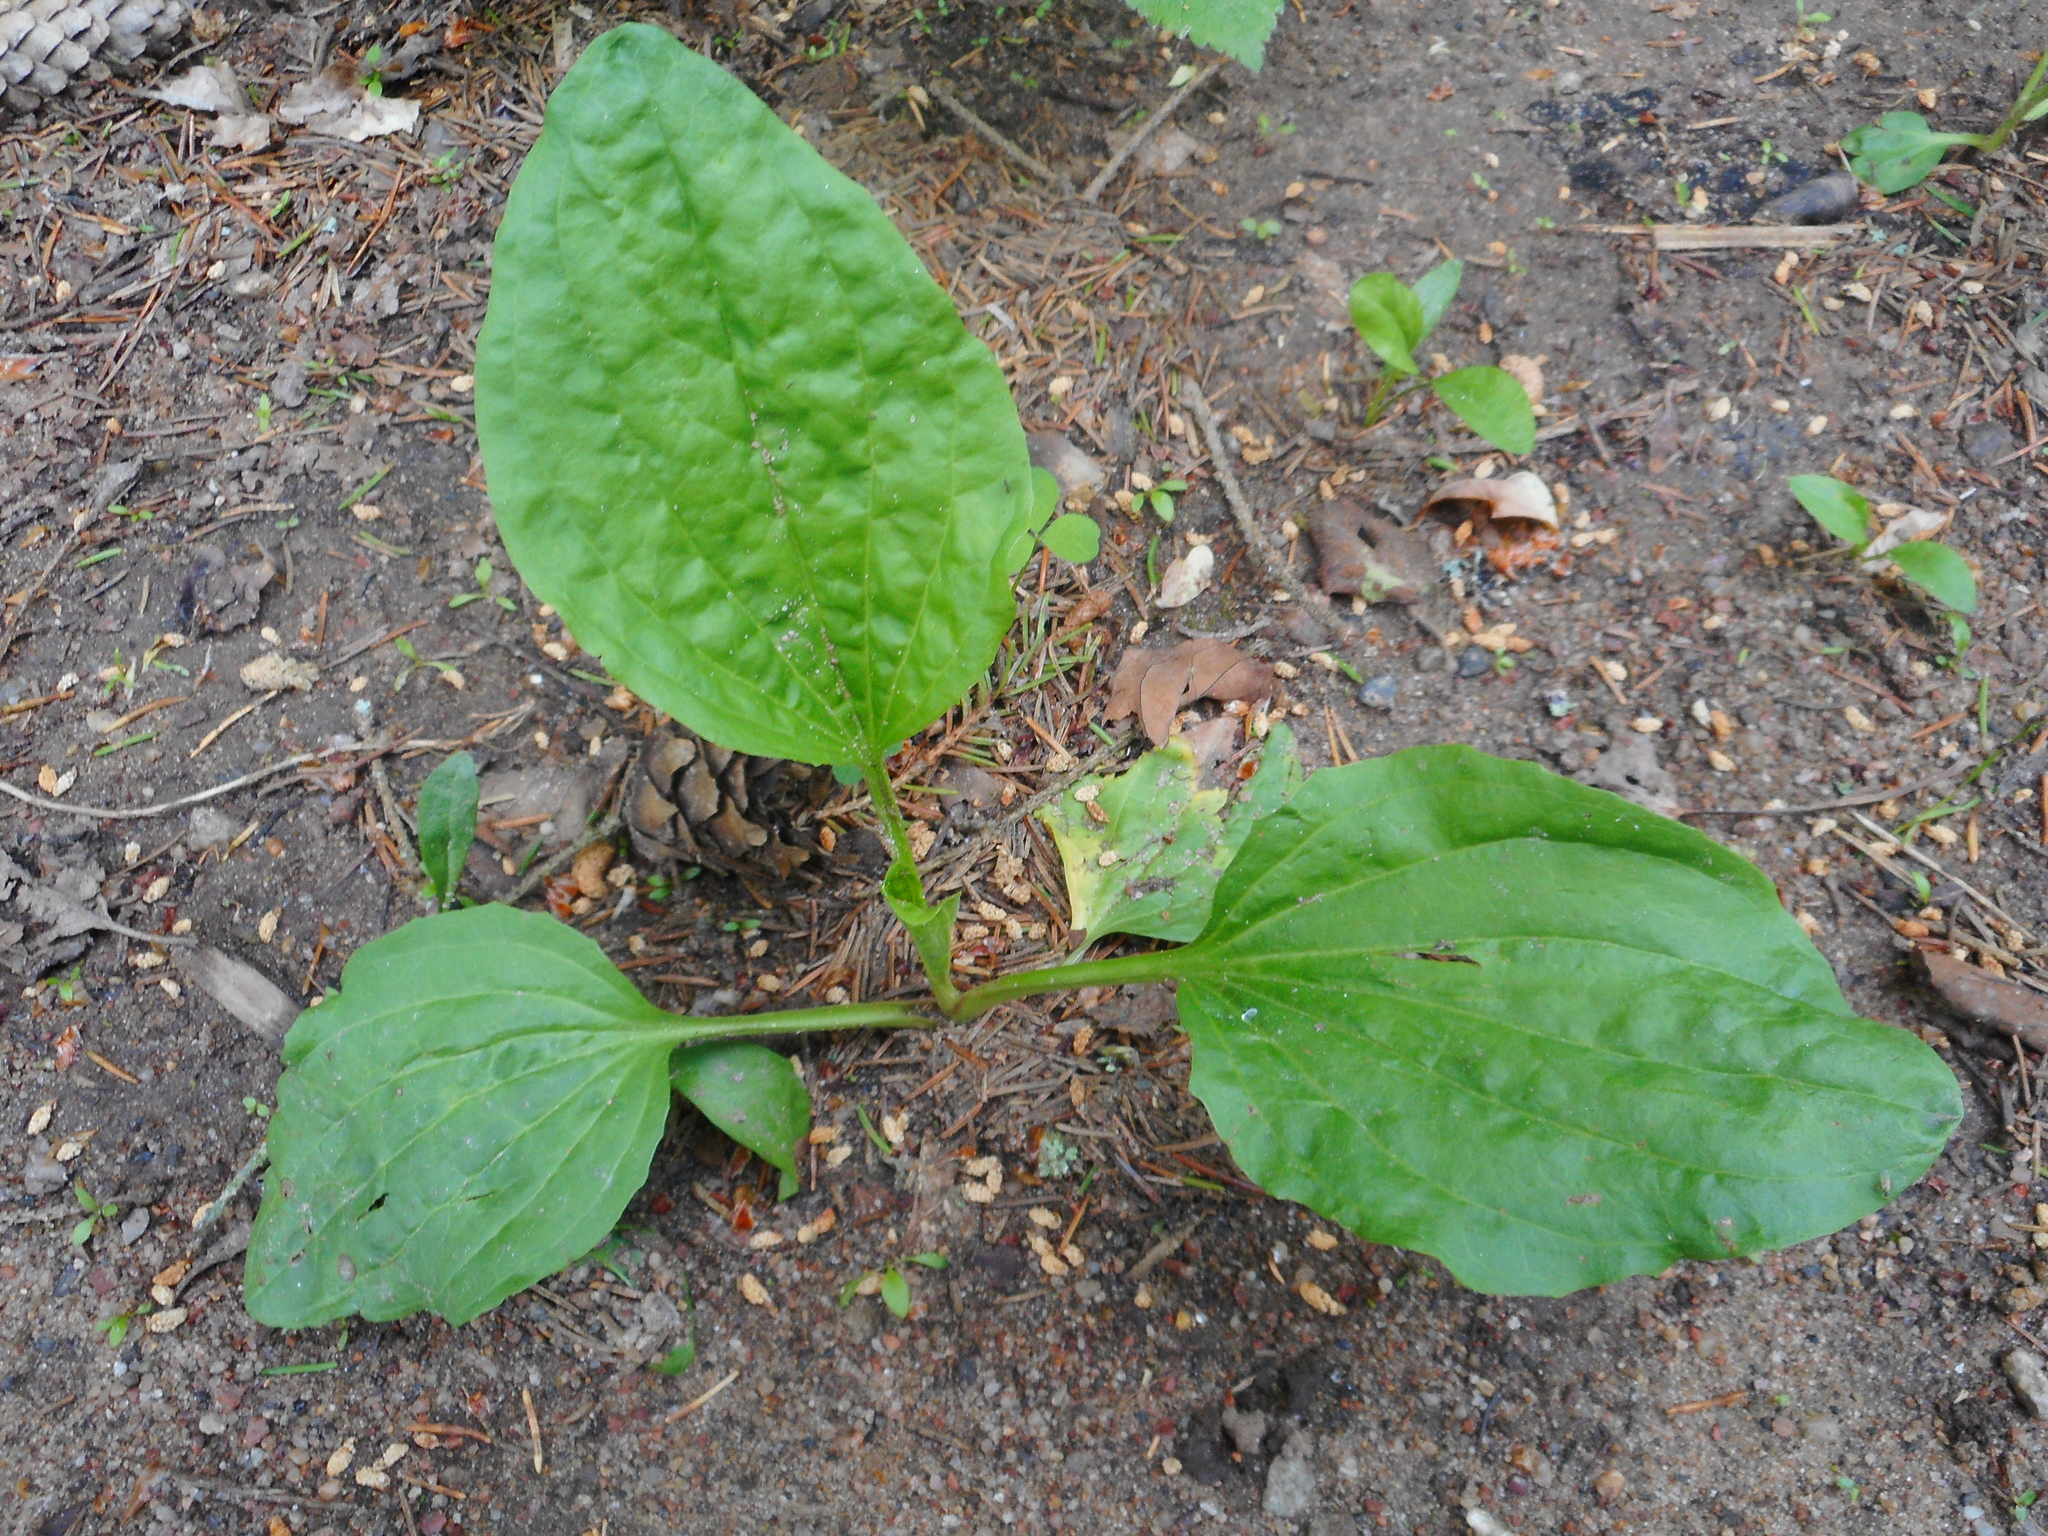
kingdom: Plantae
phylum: Tracheophyta
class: Magnoliopsida
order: Lamiales
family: Plantaginaceae
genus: Plantago
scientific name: Plantago major
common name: Common plantain
